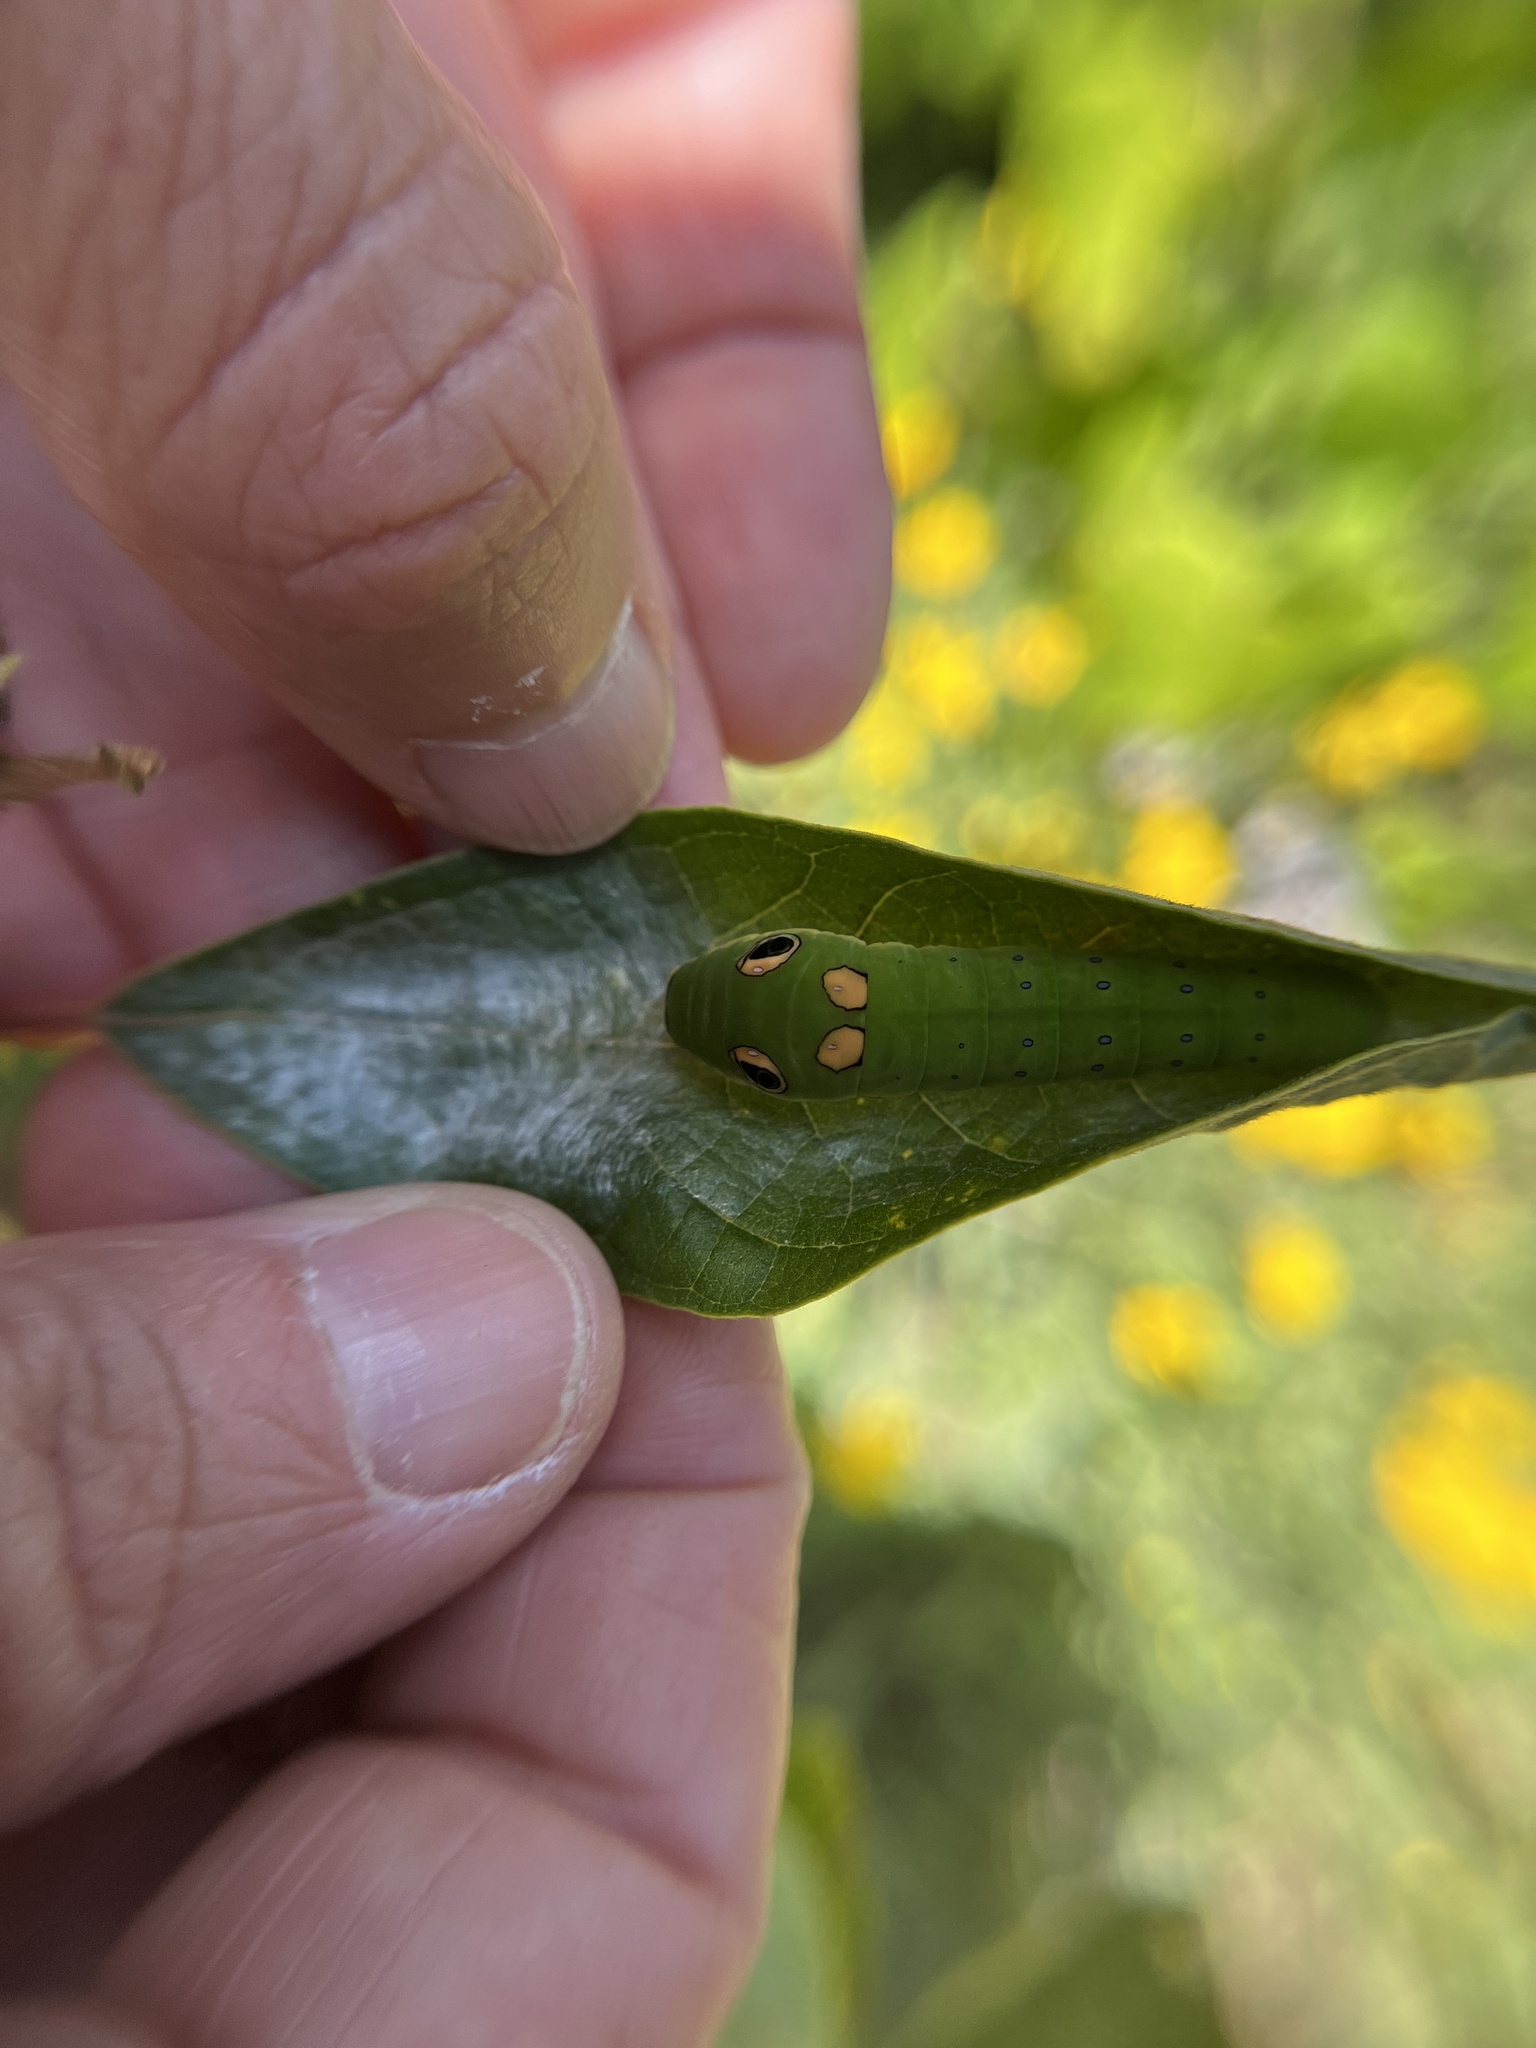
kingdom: Animalia
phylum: Arthropoda
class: Insecta
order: Lepidoptera
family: Papilionidae
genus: Papilio
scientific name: Papilio troilus
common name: Spicebush swallowtail
